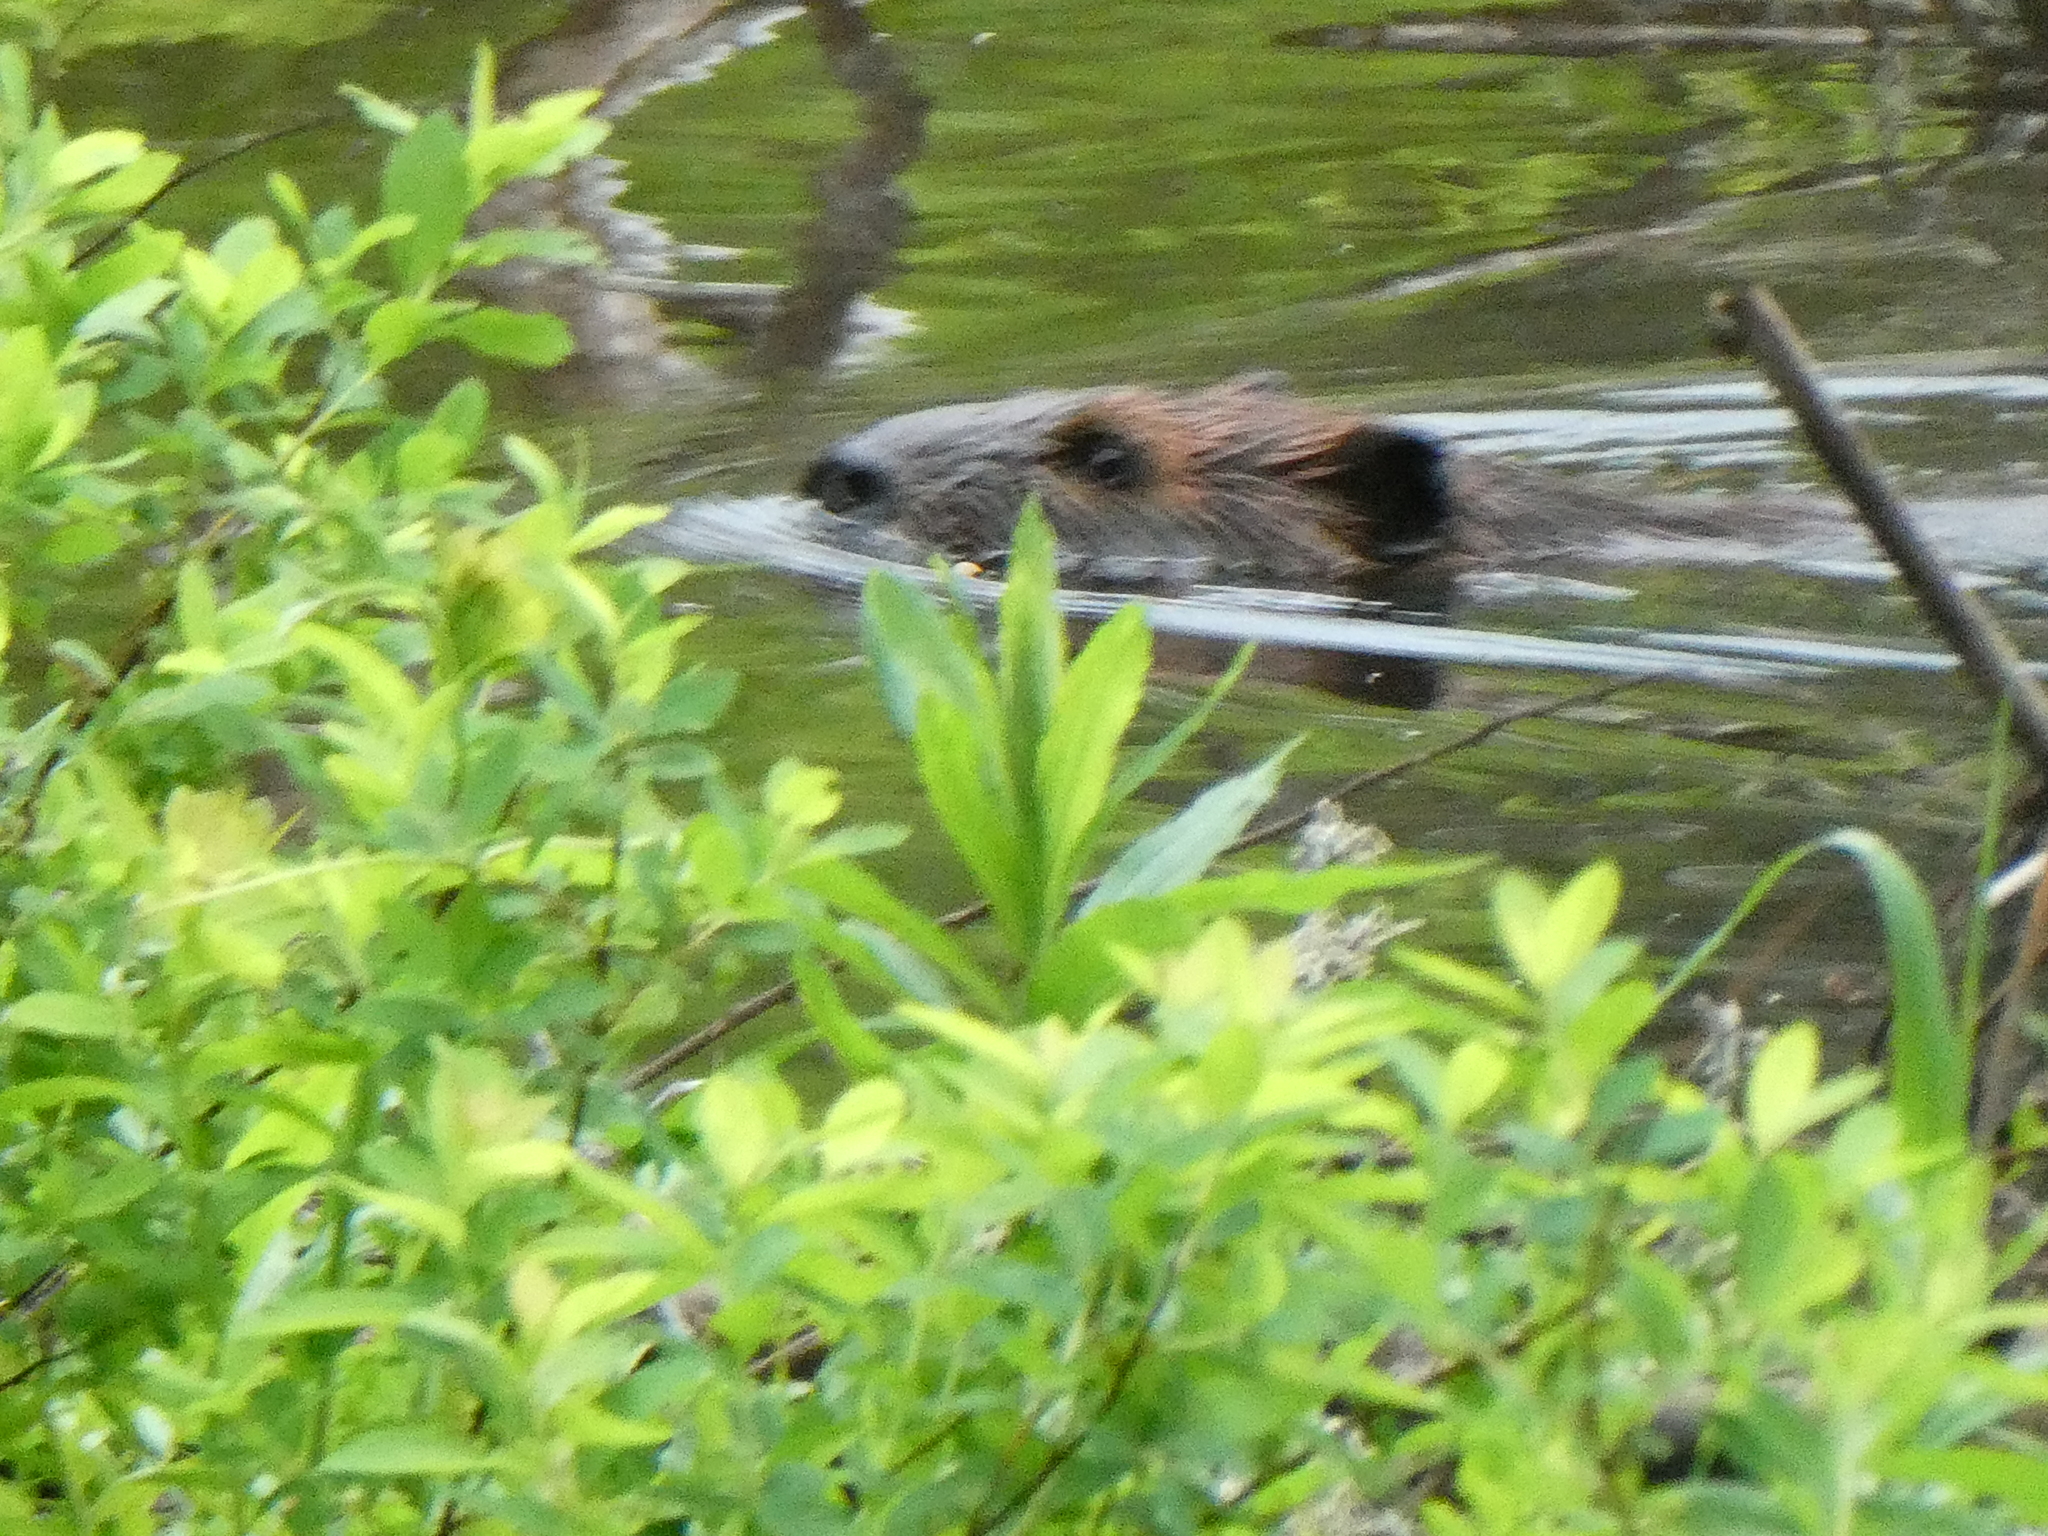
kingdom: Animalia
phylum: Chordata
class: Mammalia
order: Rodentia
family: Castoridae
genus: Castor
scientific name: Castor canadensis
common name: American beaver
